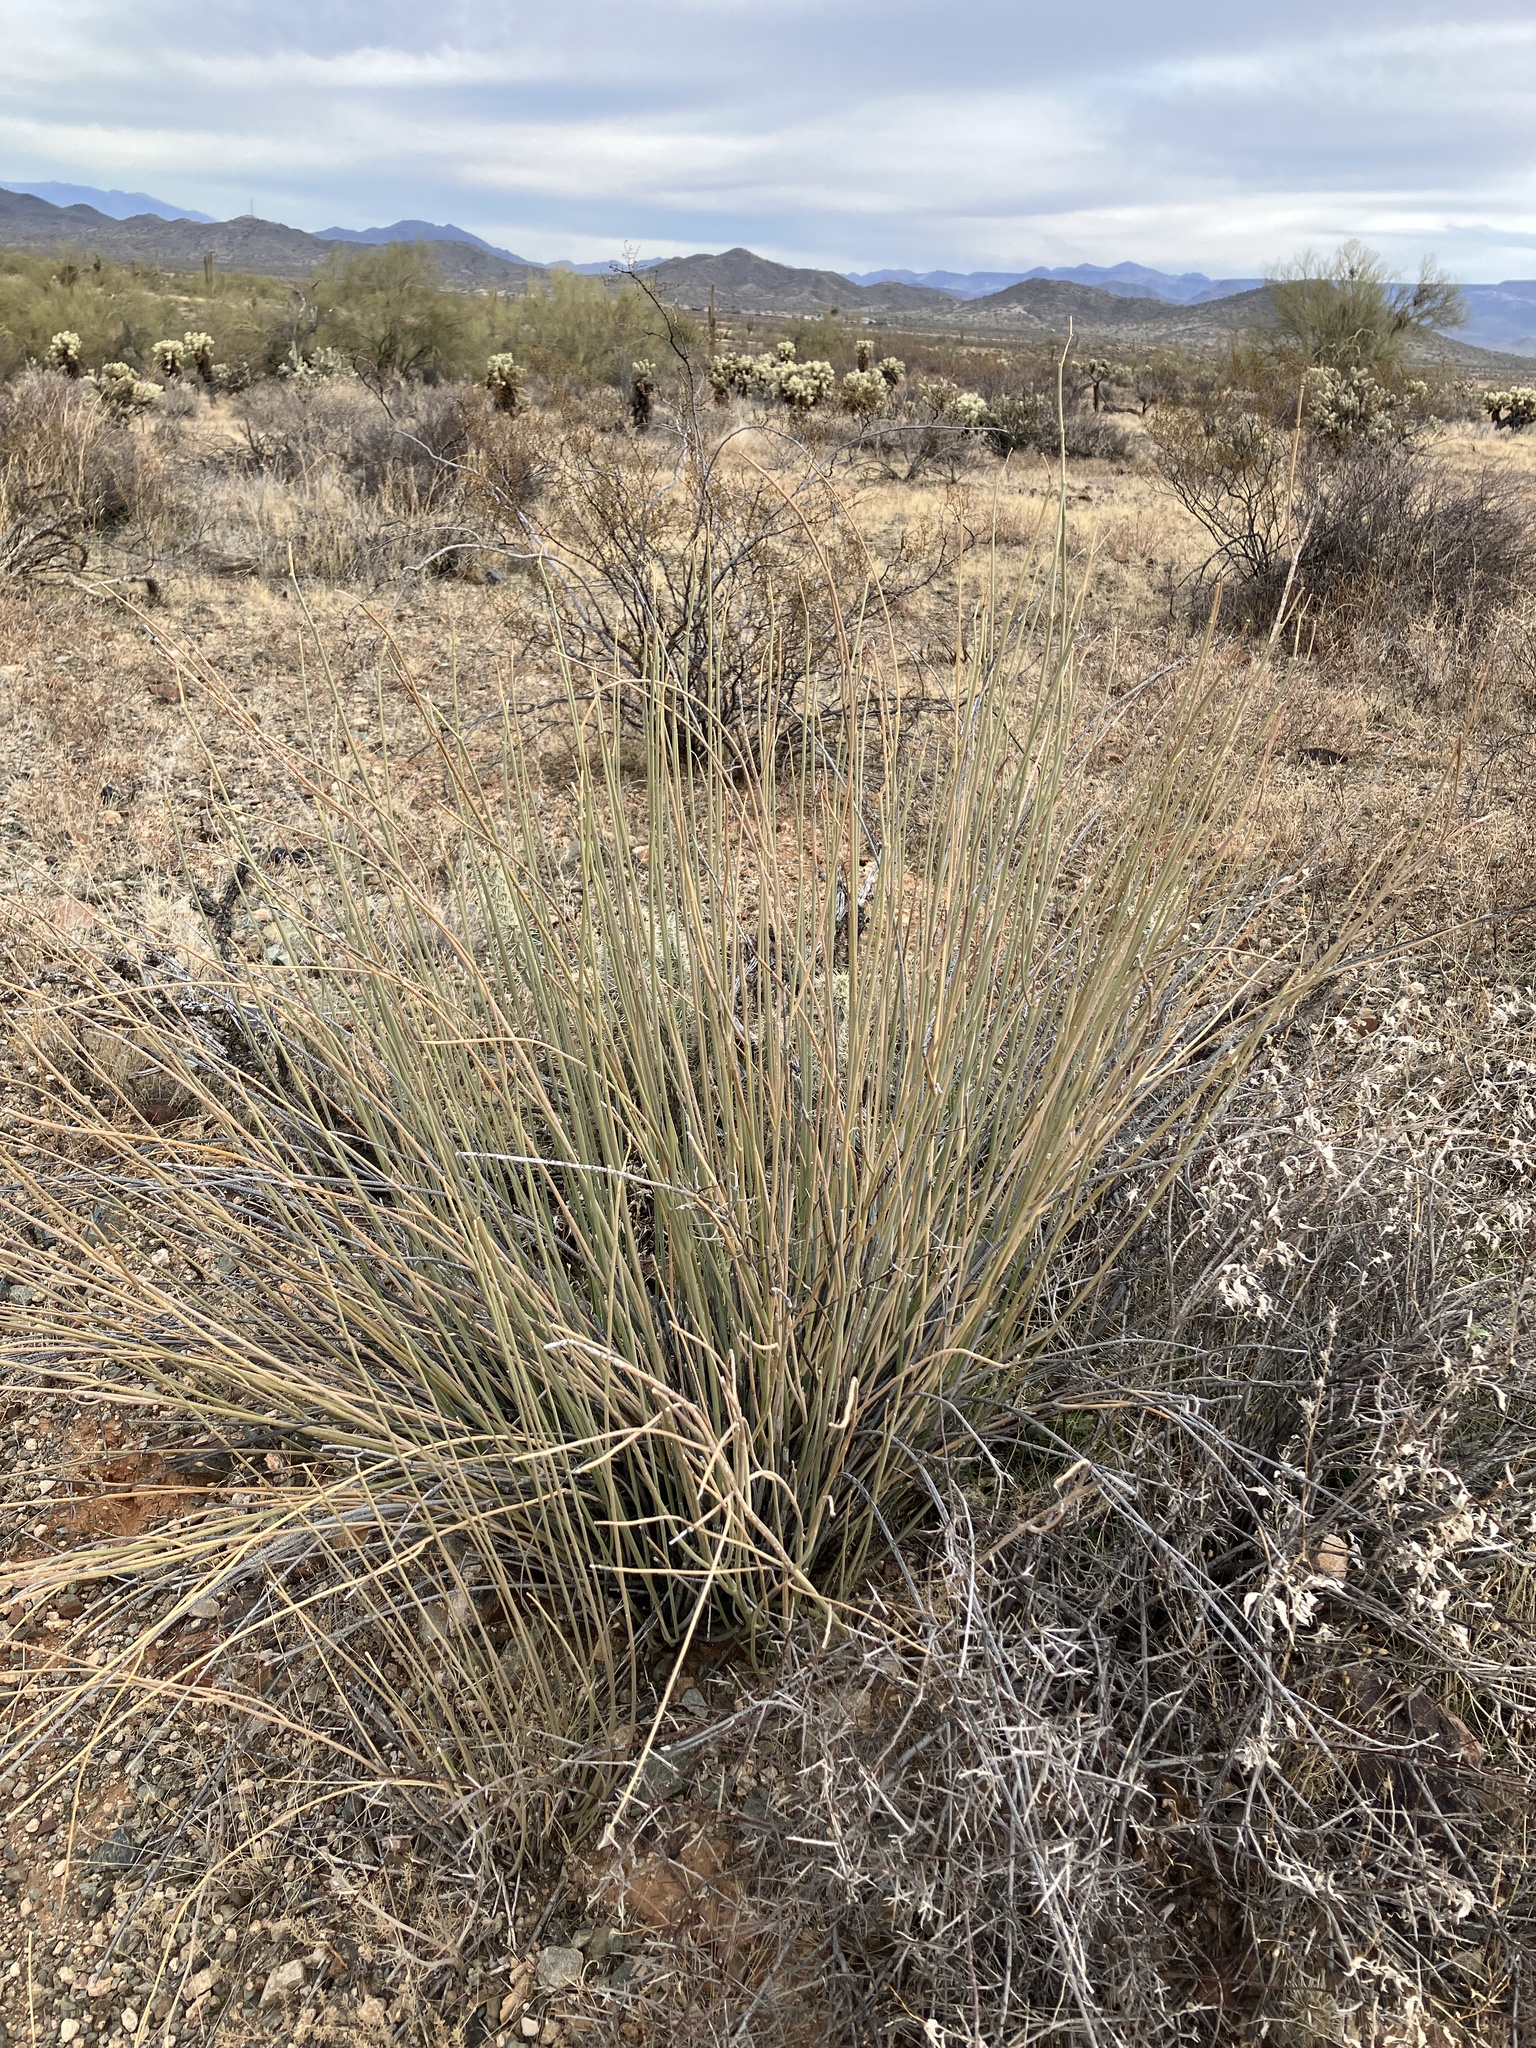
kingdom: Plantae
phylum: Tracheophyta
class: Magnoliopsida
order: Gentianales
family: Apocynaceae
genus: Asclepias
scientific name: Asclepias subulata
